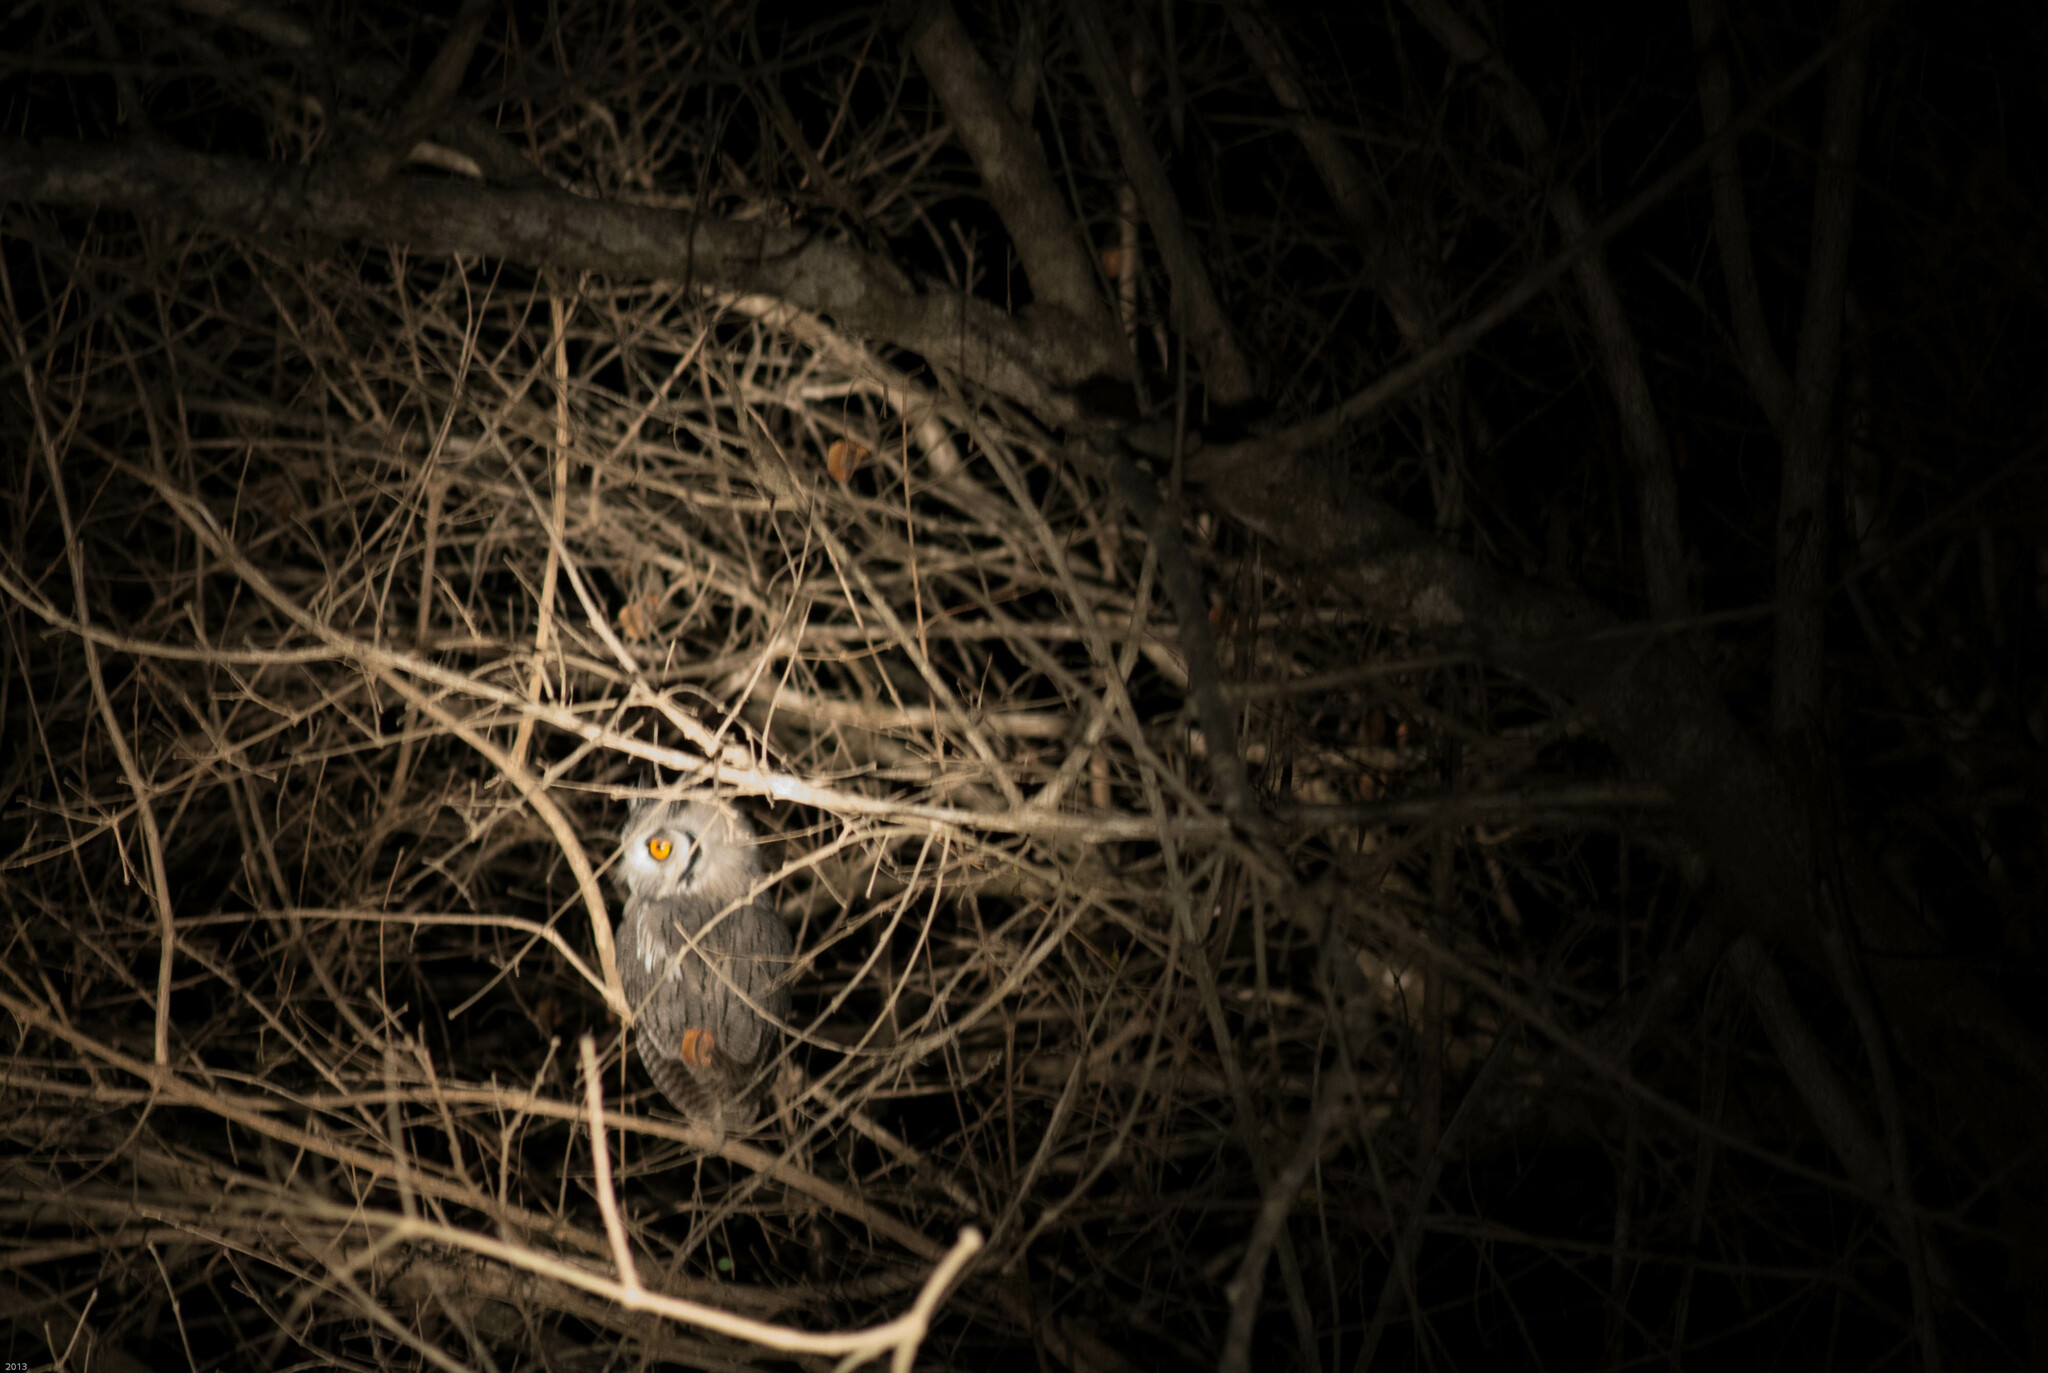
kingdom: Animalia
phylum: Chordata
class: Aves
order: Strigiformes
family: Strigidae
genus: Ptilopsis
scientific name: Ptilopsis granti
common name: Southern white-faced owl
